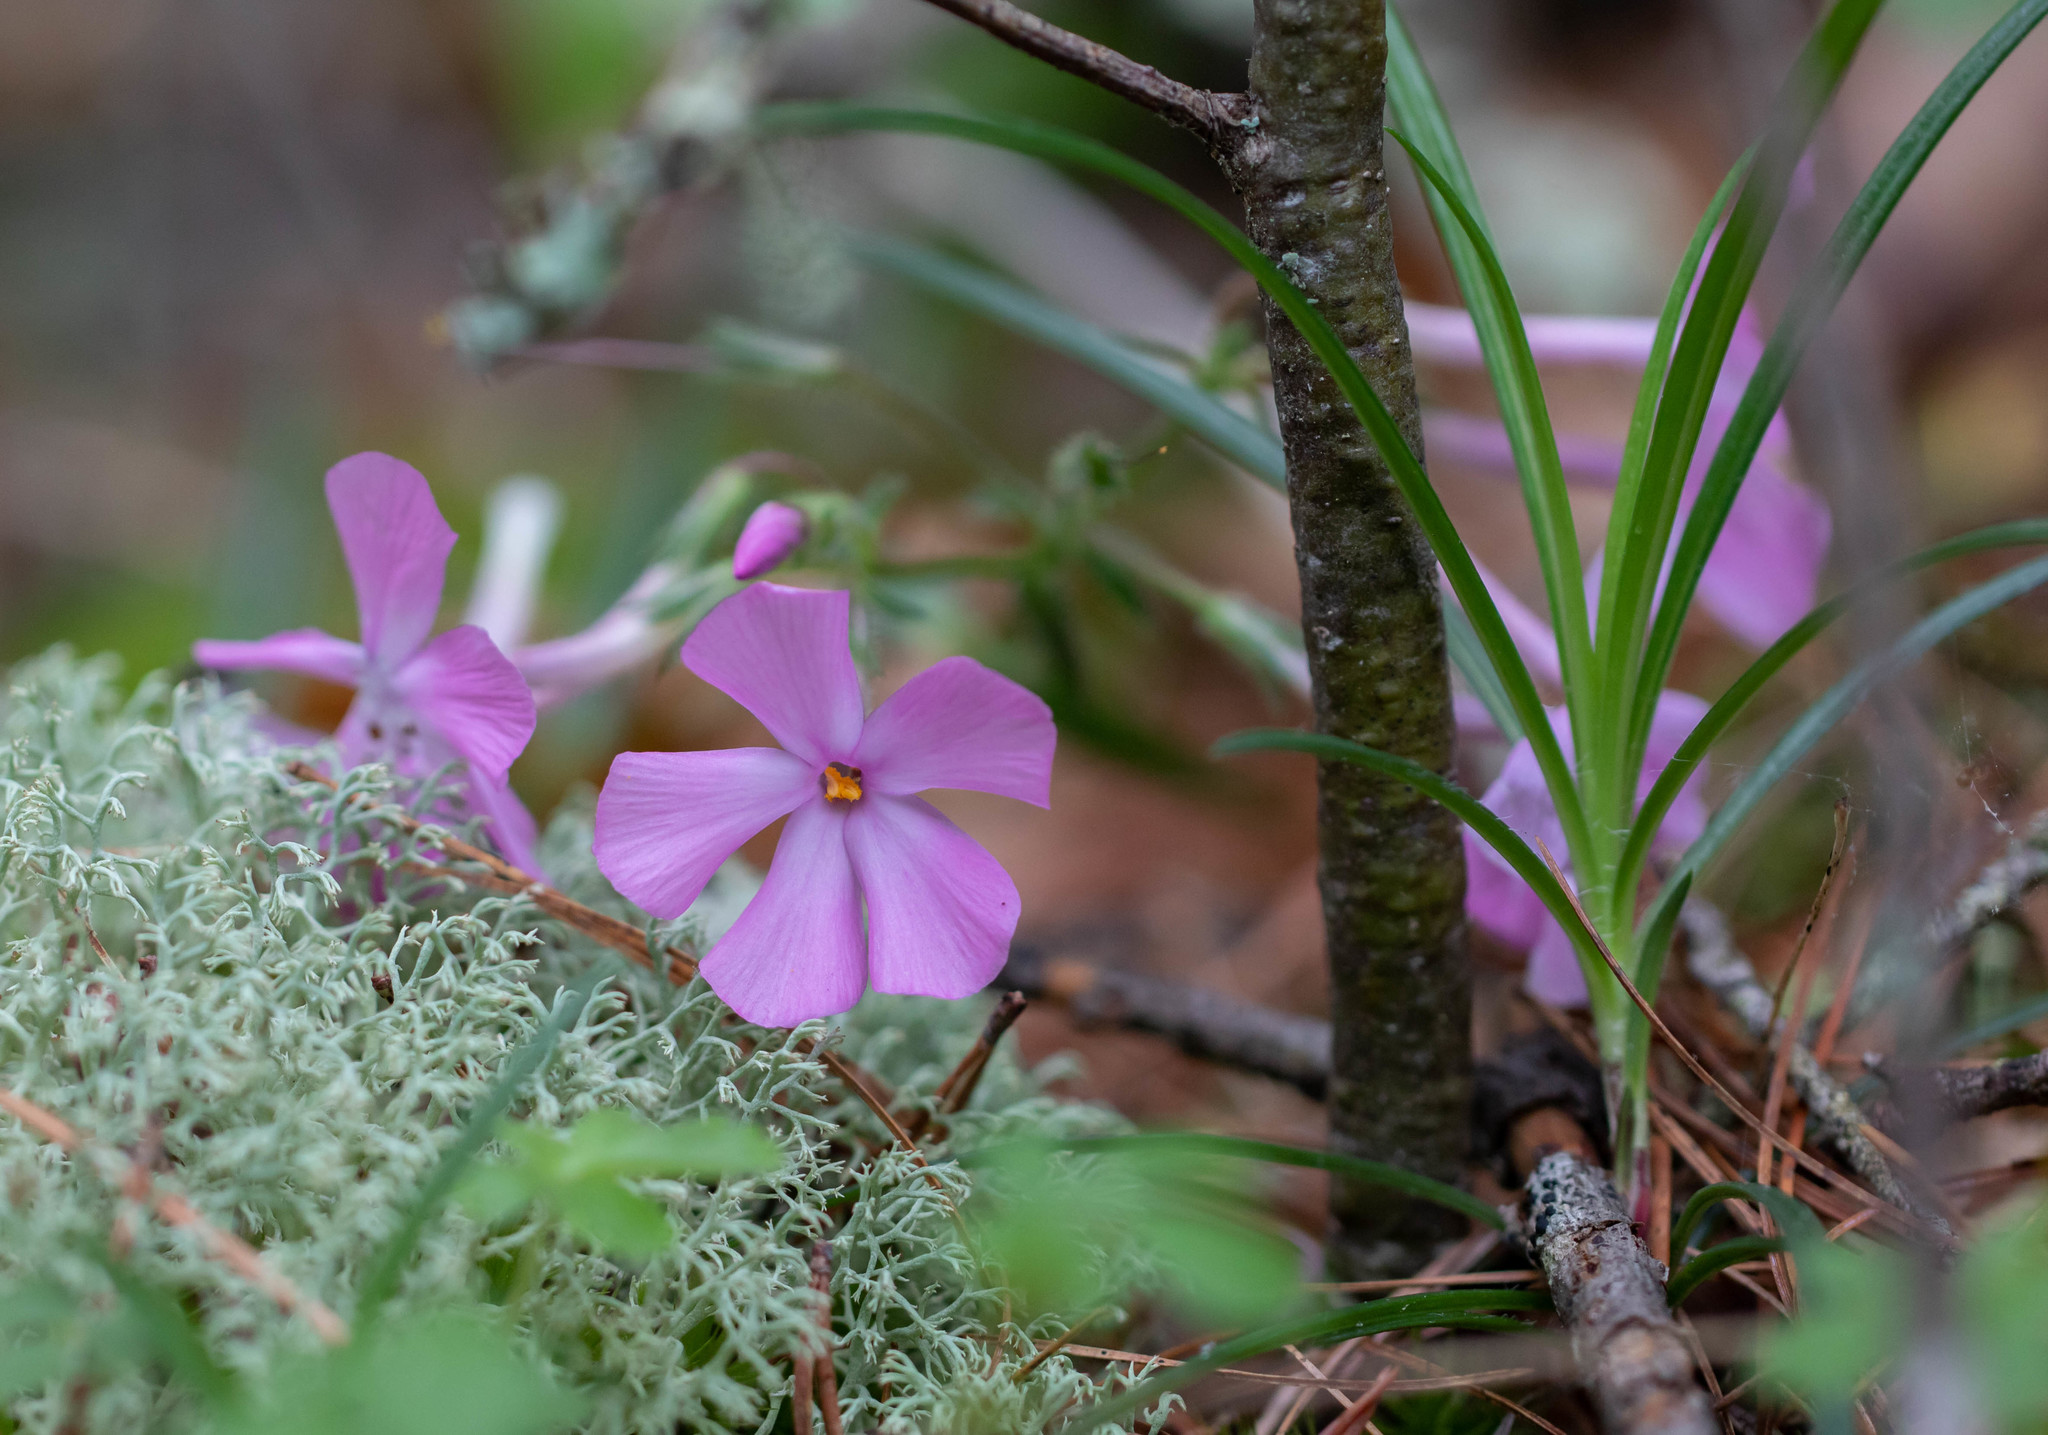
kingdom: Plantae
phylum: Tracheophyta
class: Magnoliopsida
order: Ericales
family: Polemoniaceae
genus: Phlox
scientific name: Phlox buckleyi
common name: Shale-barren phlox
